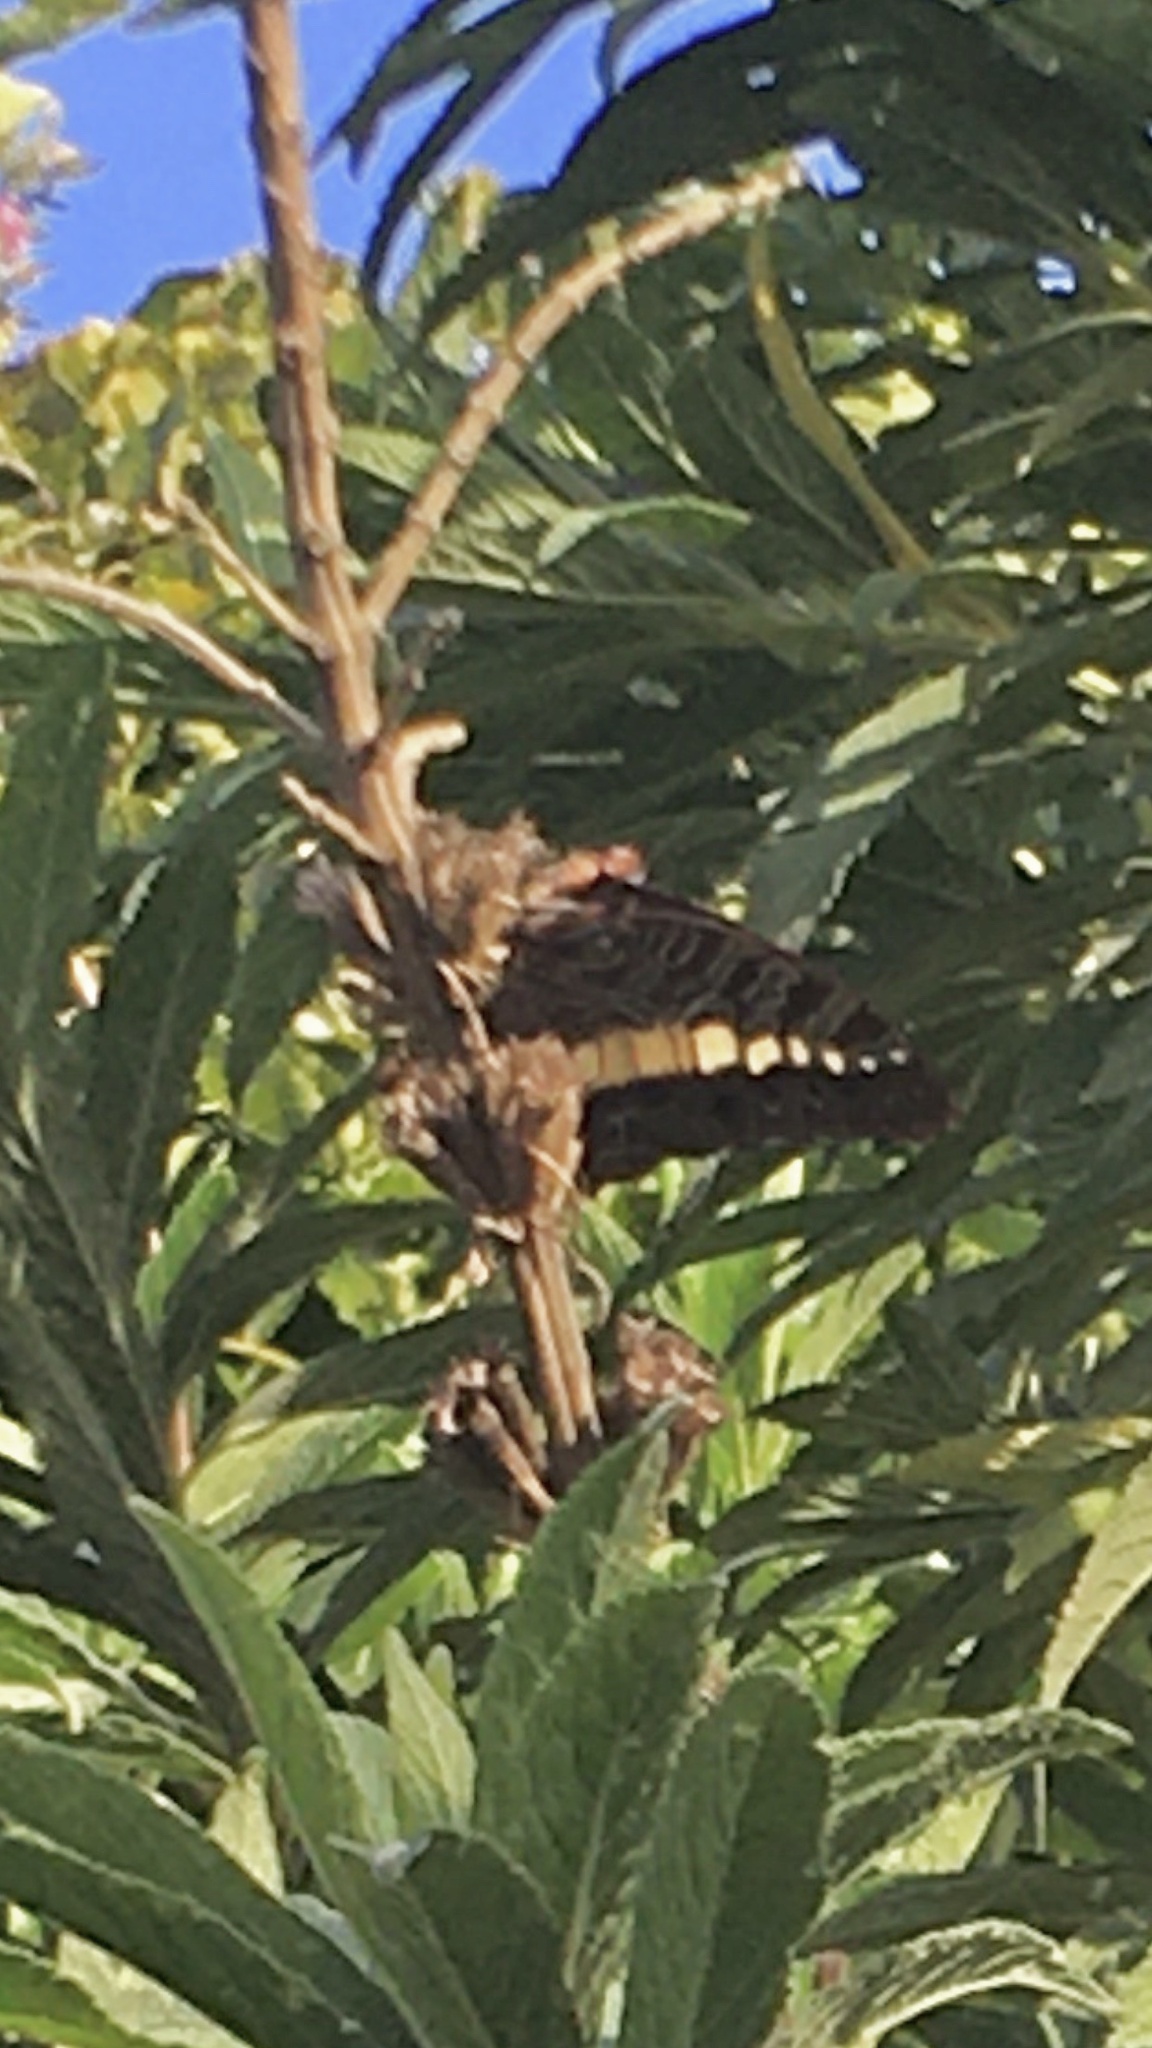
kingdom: Animalia
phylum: Arthropoda
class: Insecta
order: Lepidoptera
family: Nymphalidae
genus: Charaxes
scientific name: Charaxes brutus
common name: White-barred charaxes
